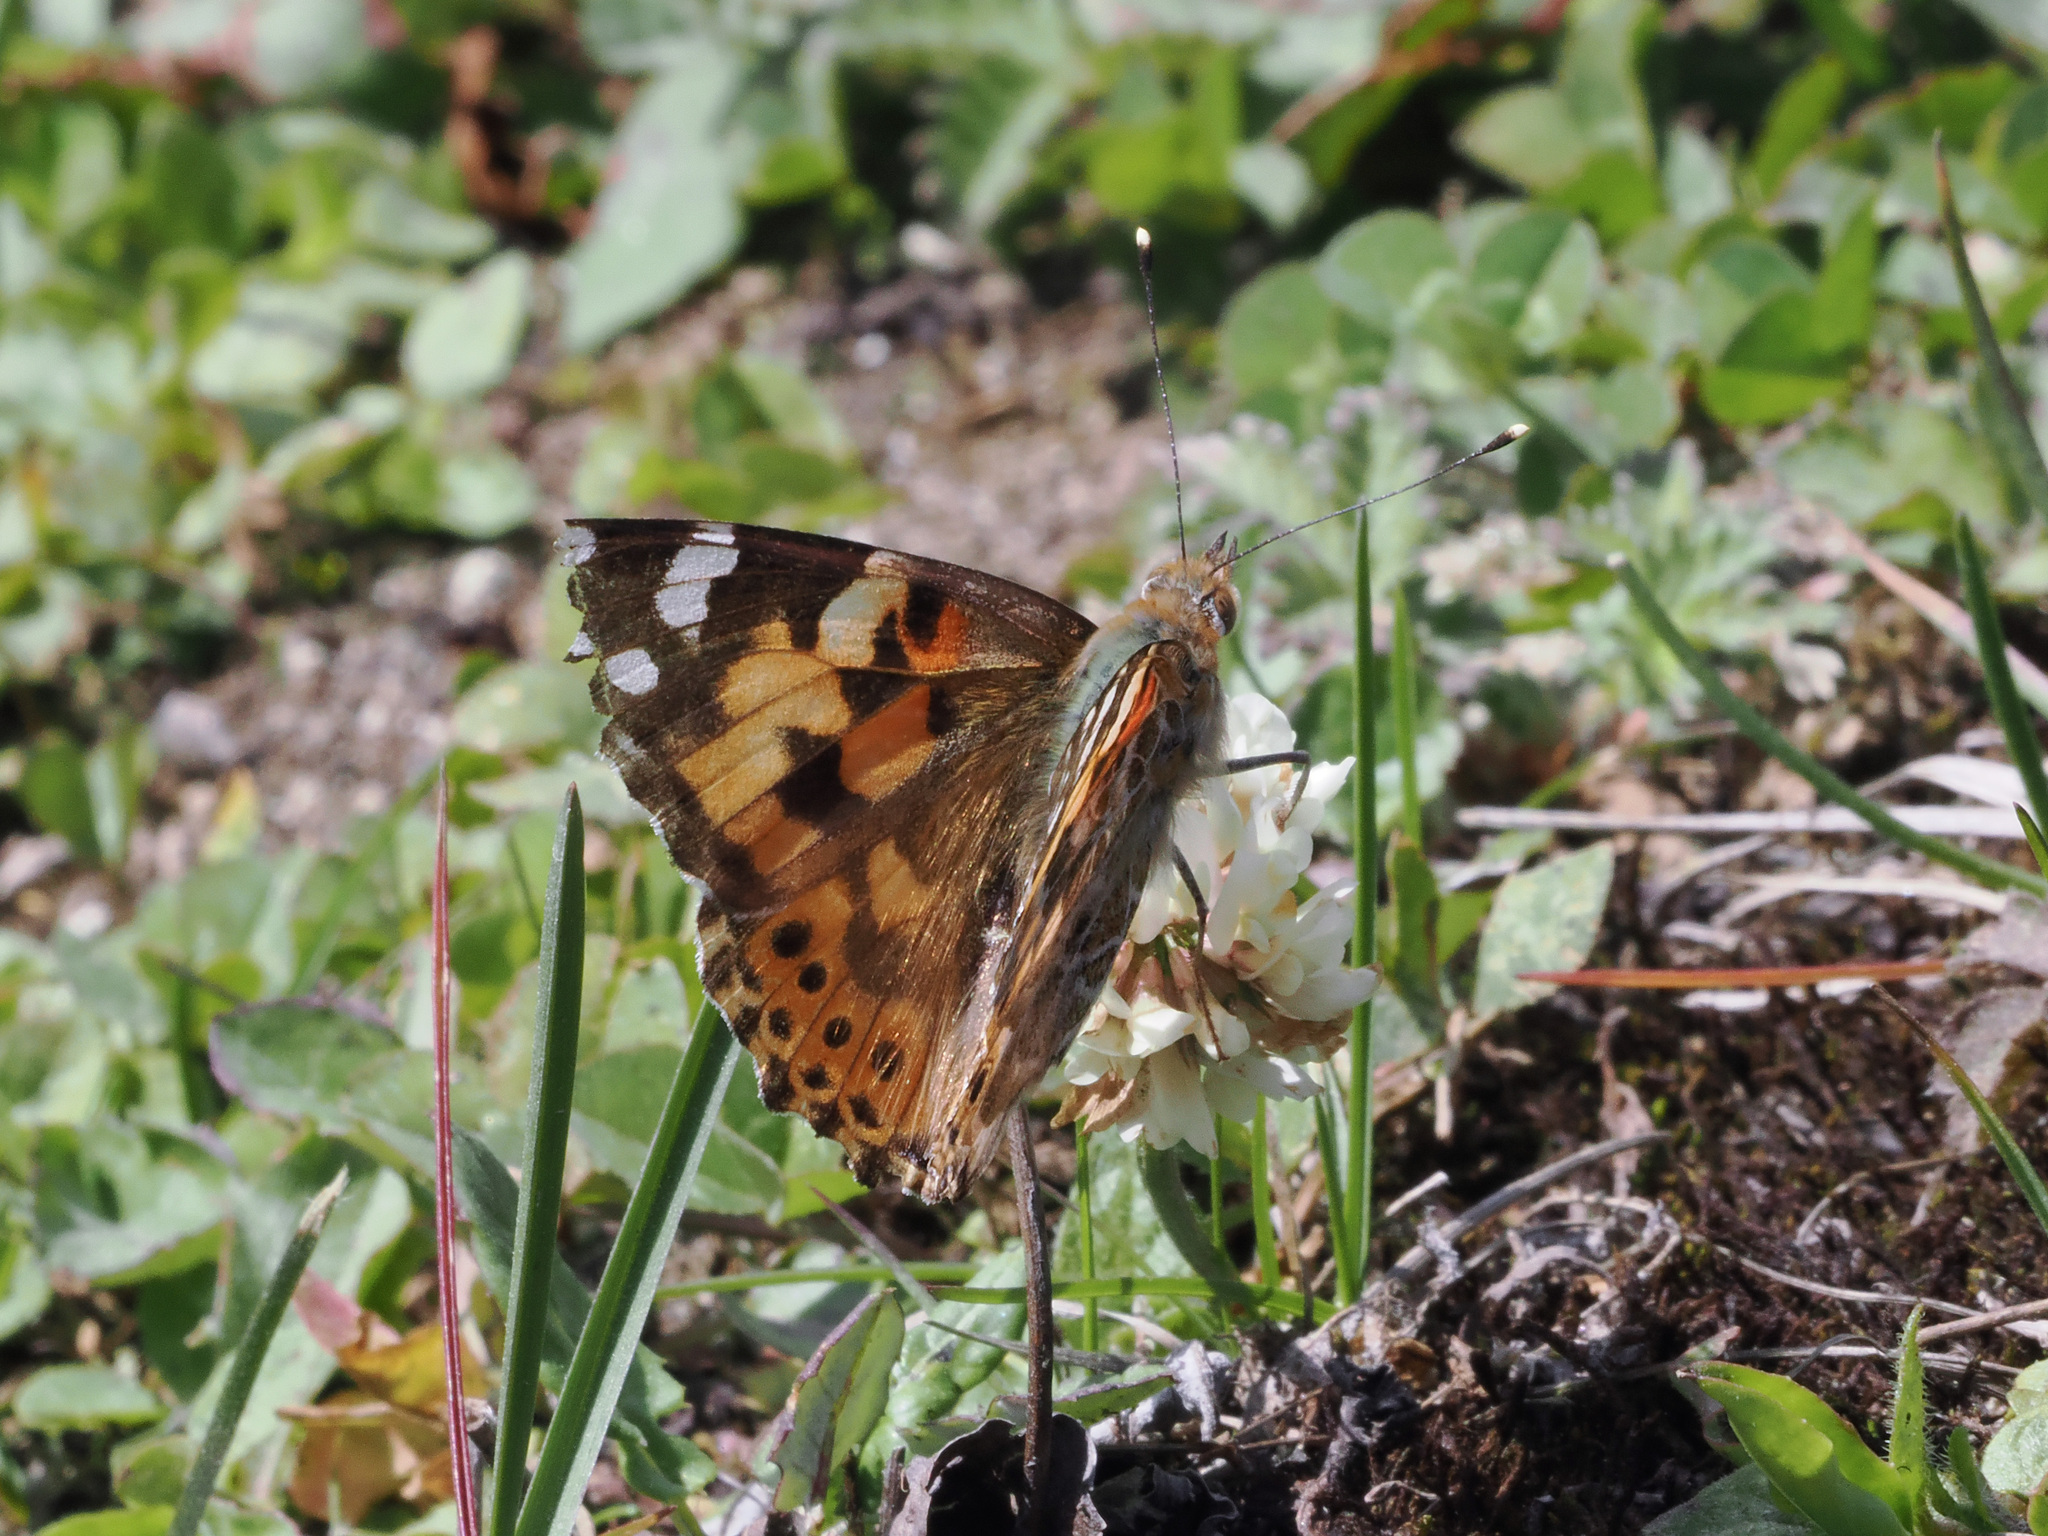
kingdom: Animalia
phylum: Arthropoda
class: Insecta
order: Lepidoptera
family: Nymphalidae
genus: Vanessa
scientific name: Vanessa cardui
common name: Painted lady
